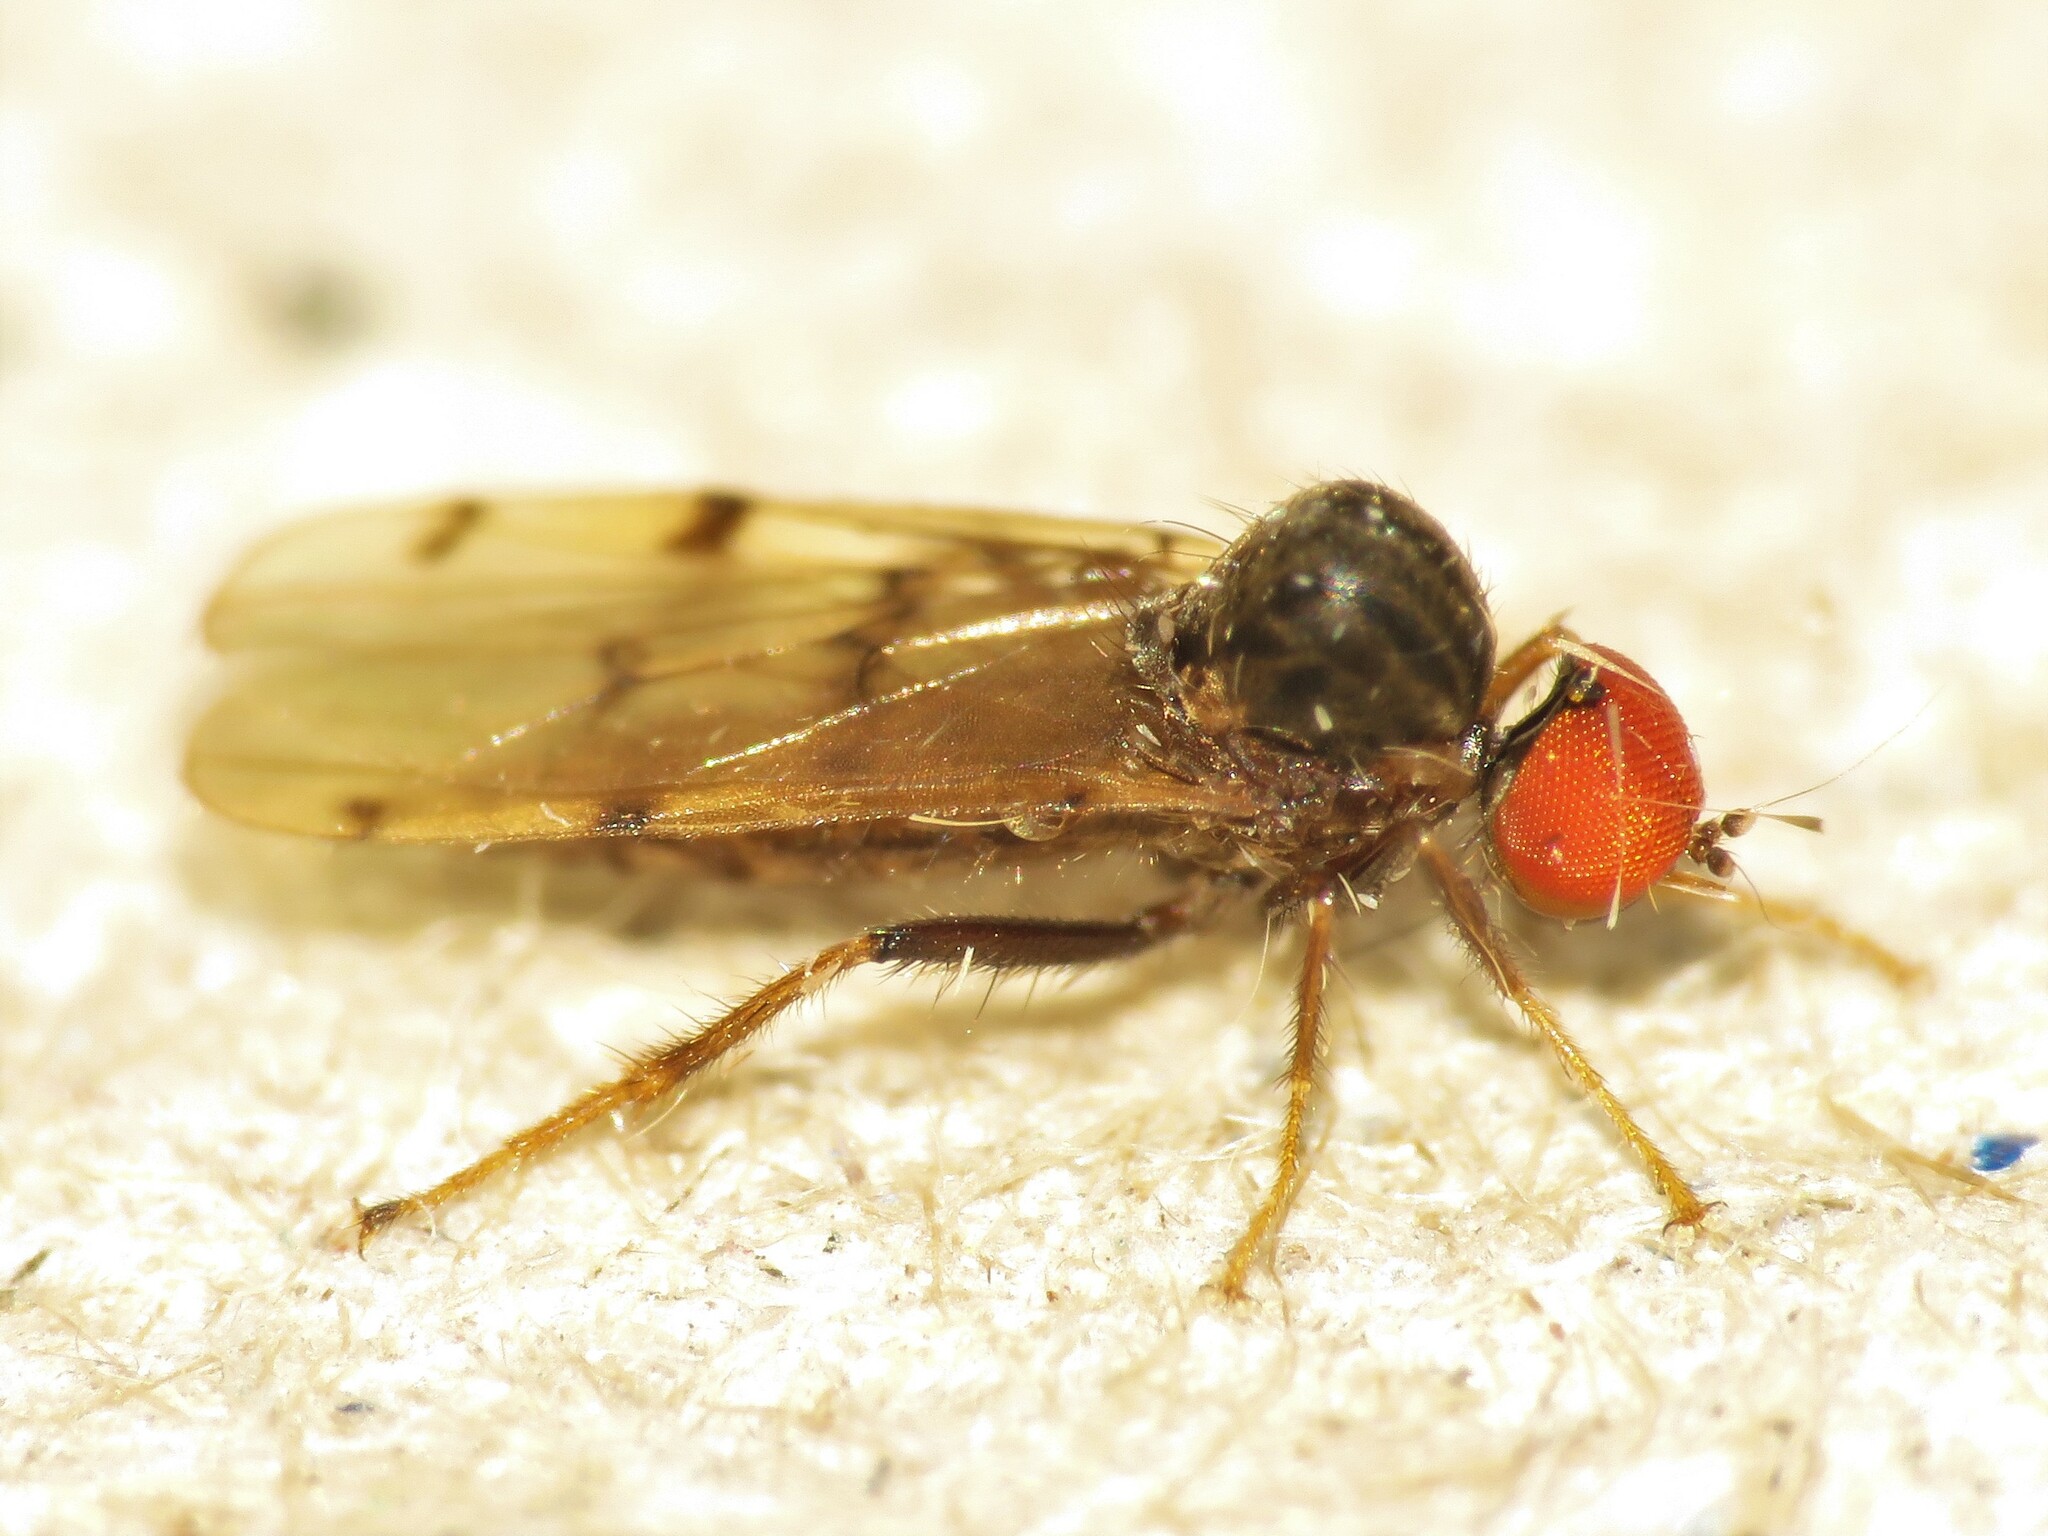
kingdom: Animalia
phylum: Arthropoda
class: Insecta
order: Diptera
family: Hybotidae
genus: Syneches
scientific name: Syneches simplex
